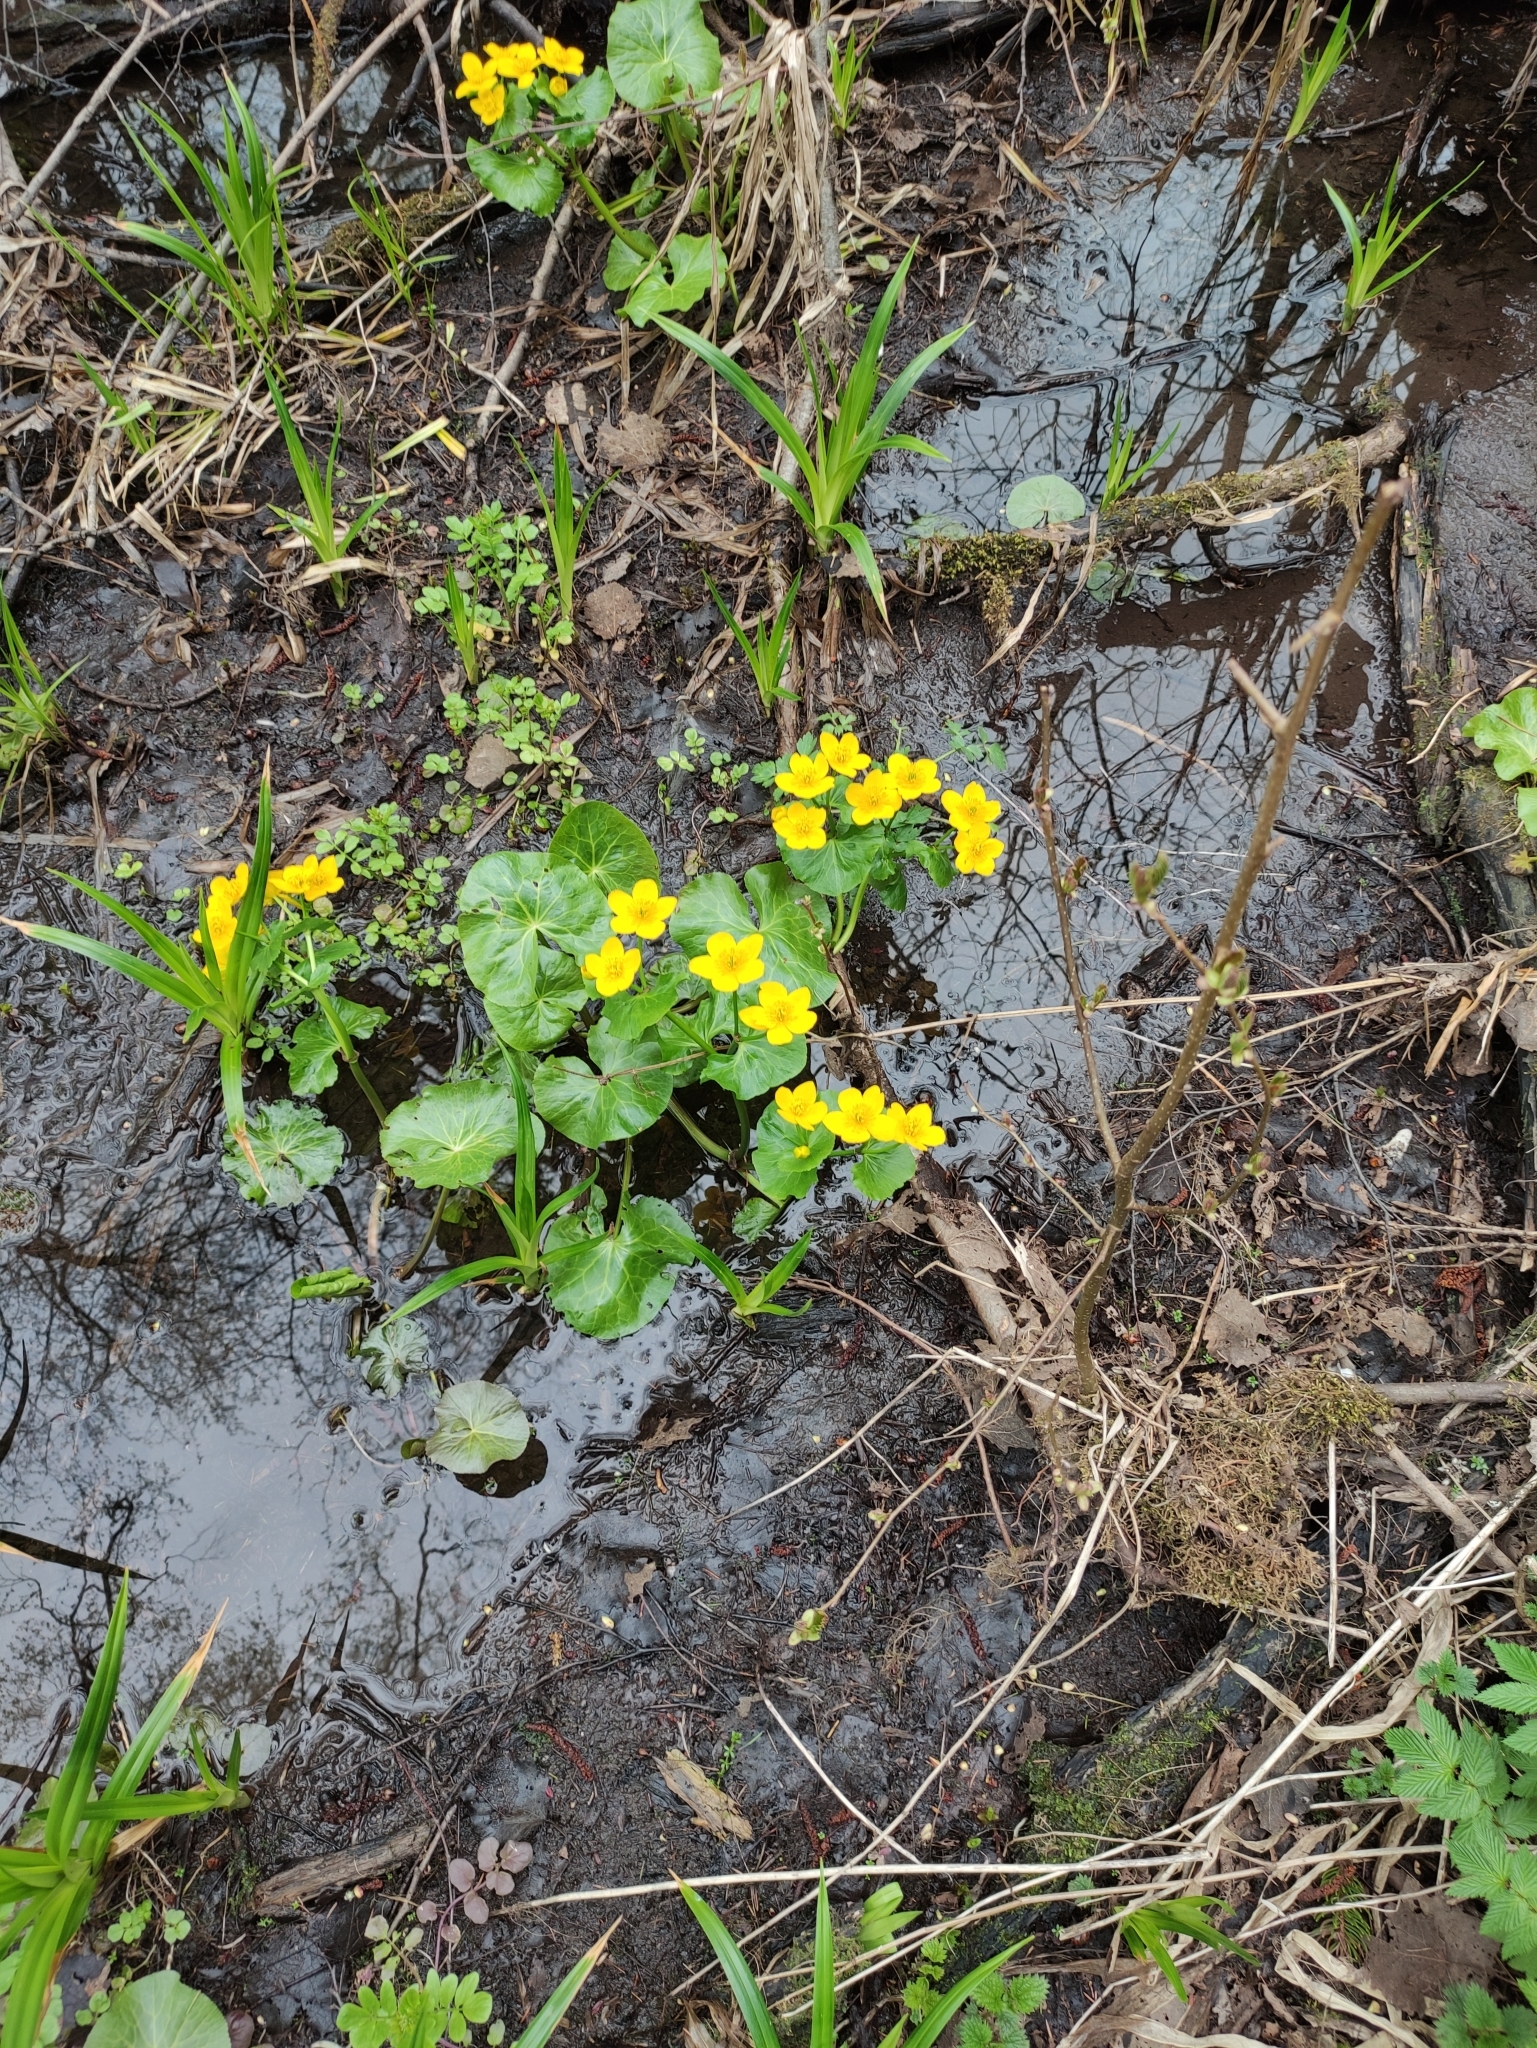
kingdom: Plantae
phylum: Tracheophyta
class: Magnoliopsida
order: Ranunculales
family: Ranunculaceae
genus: Caltha
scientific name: Caltha palustris
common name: Marsh marigold
